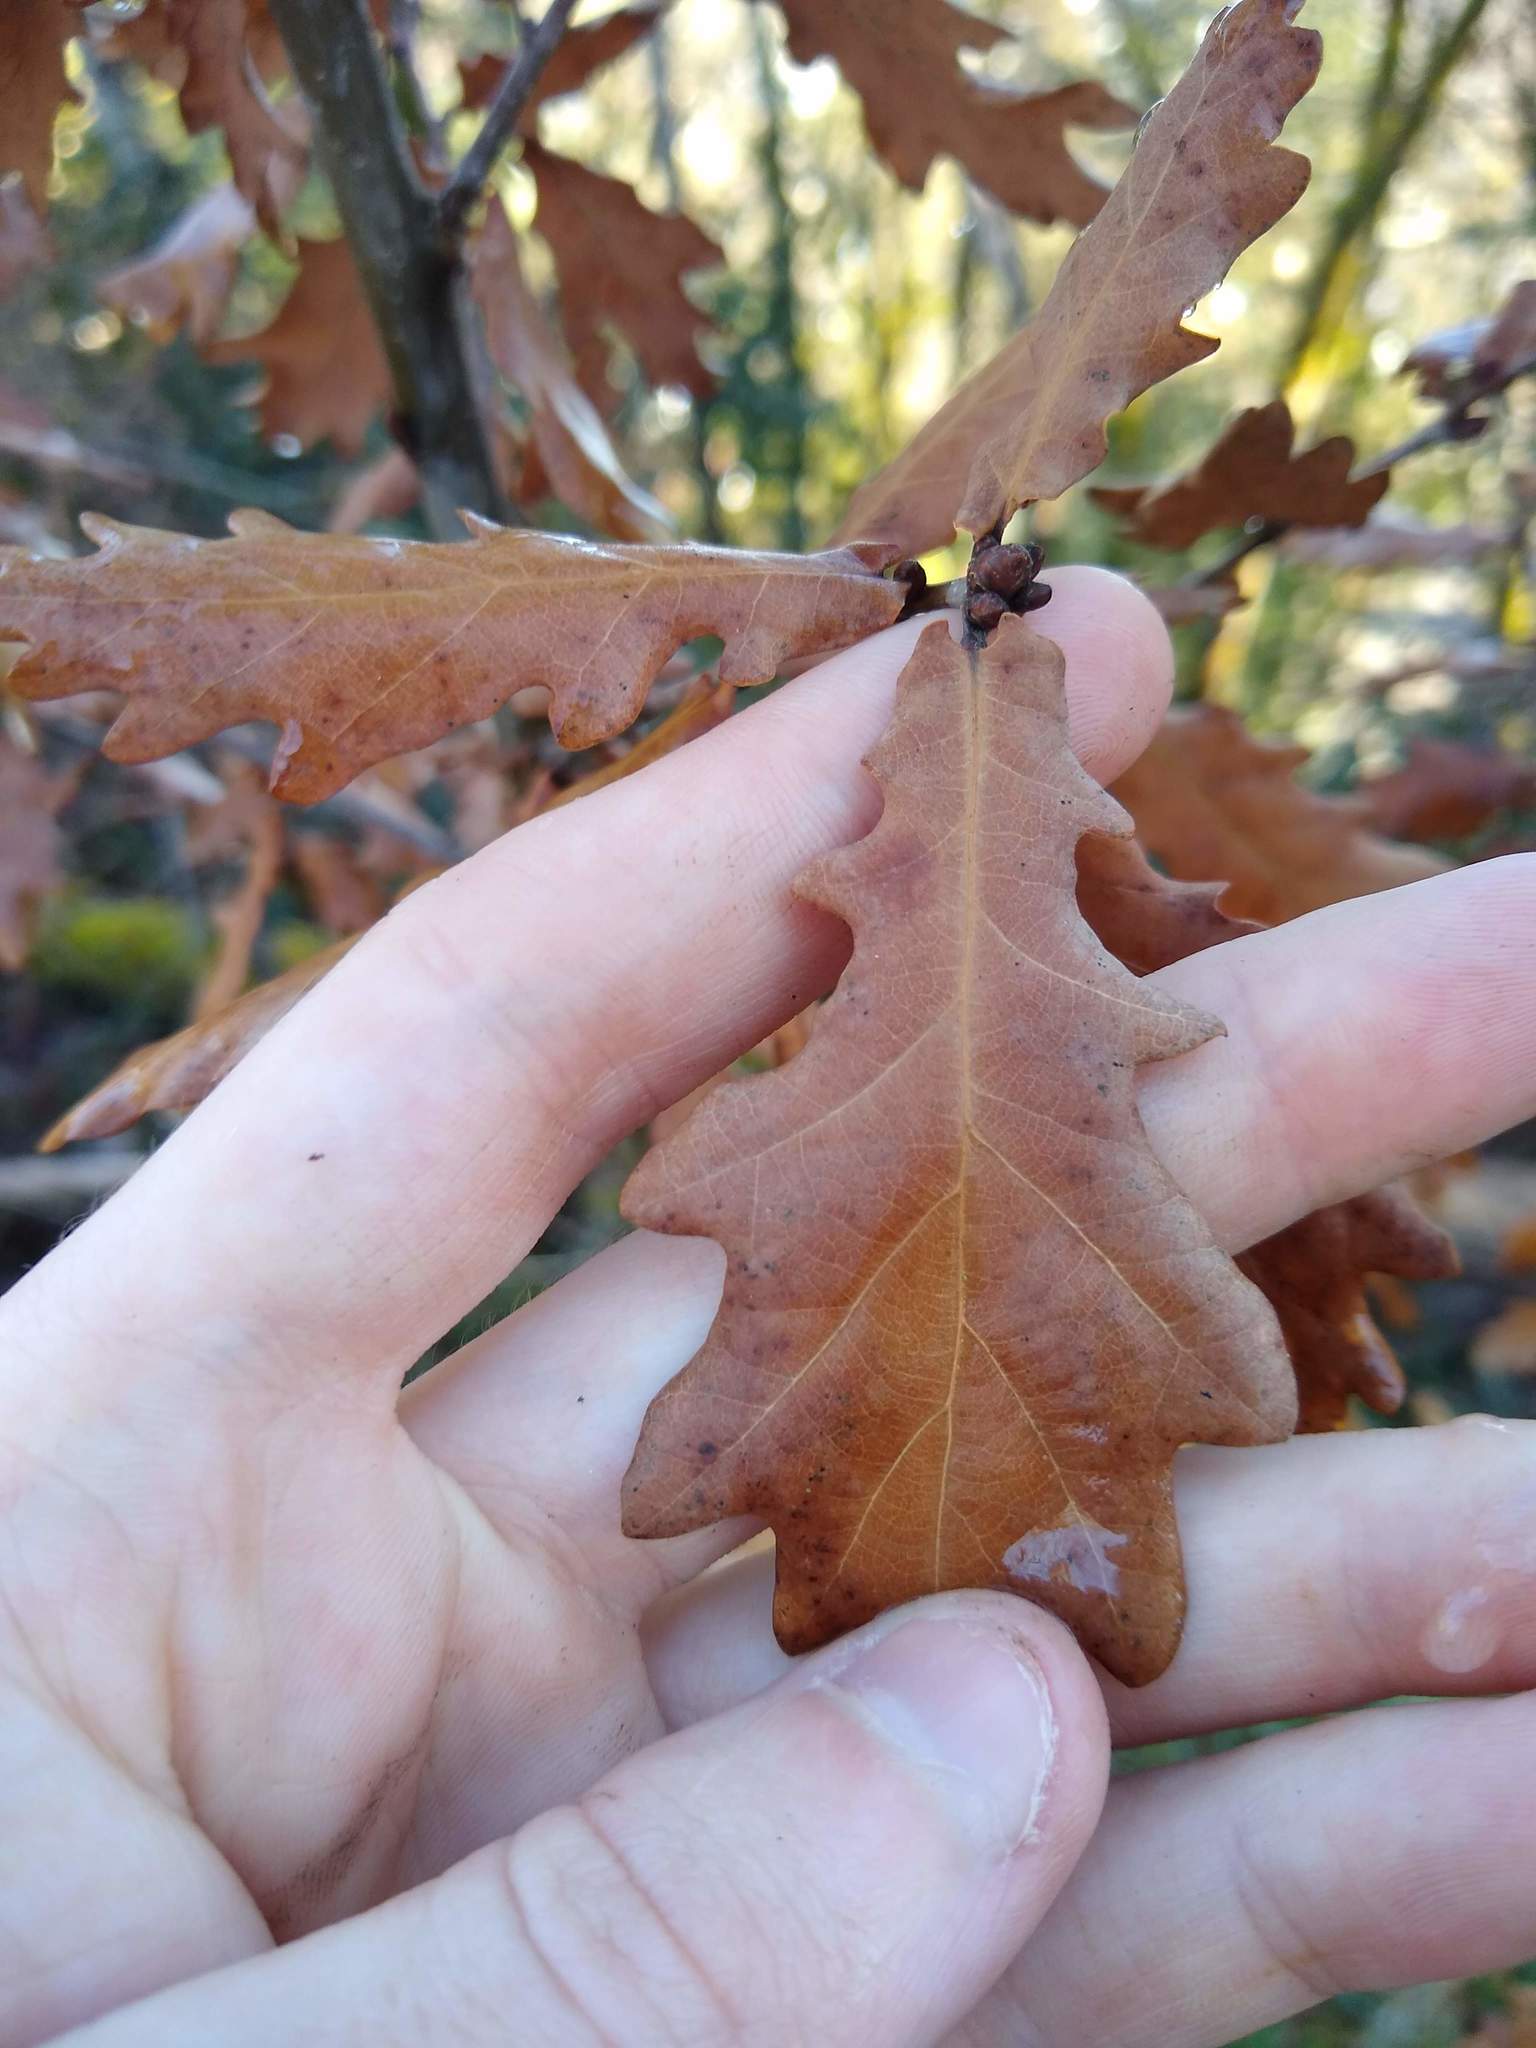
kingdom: Plantae
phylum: Tracheophyta
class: Magnoliopsida
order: Fagales
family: Fagaceae
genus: Quercus
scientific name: Quercus robur
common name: Pedunculate oak
